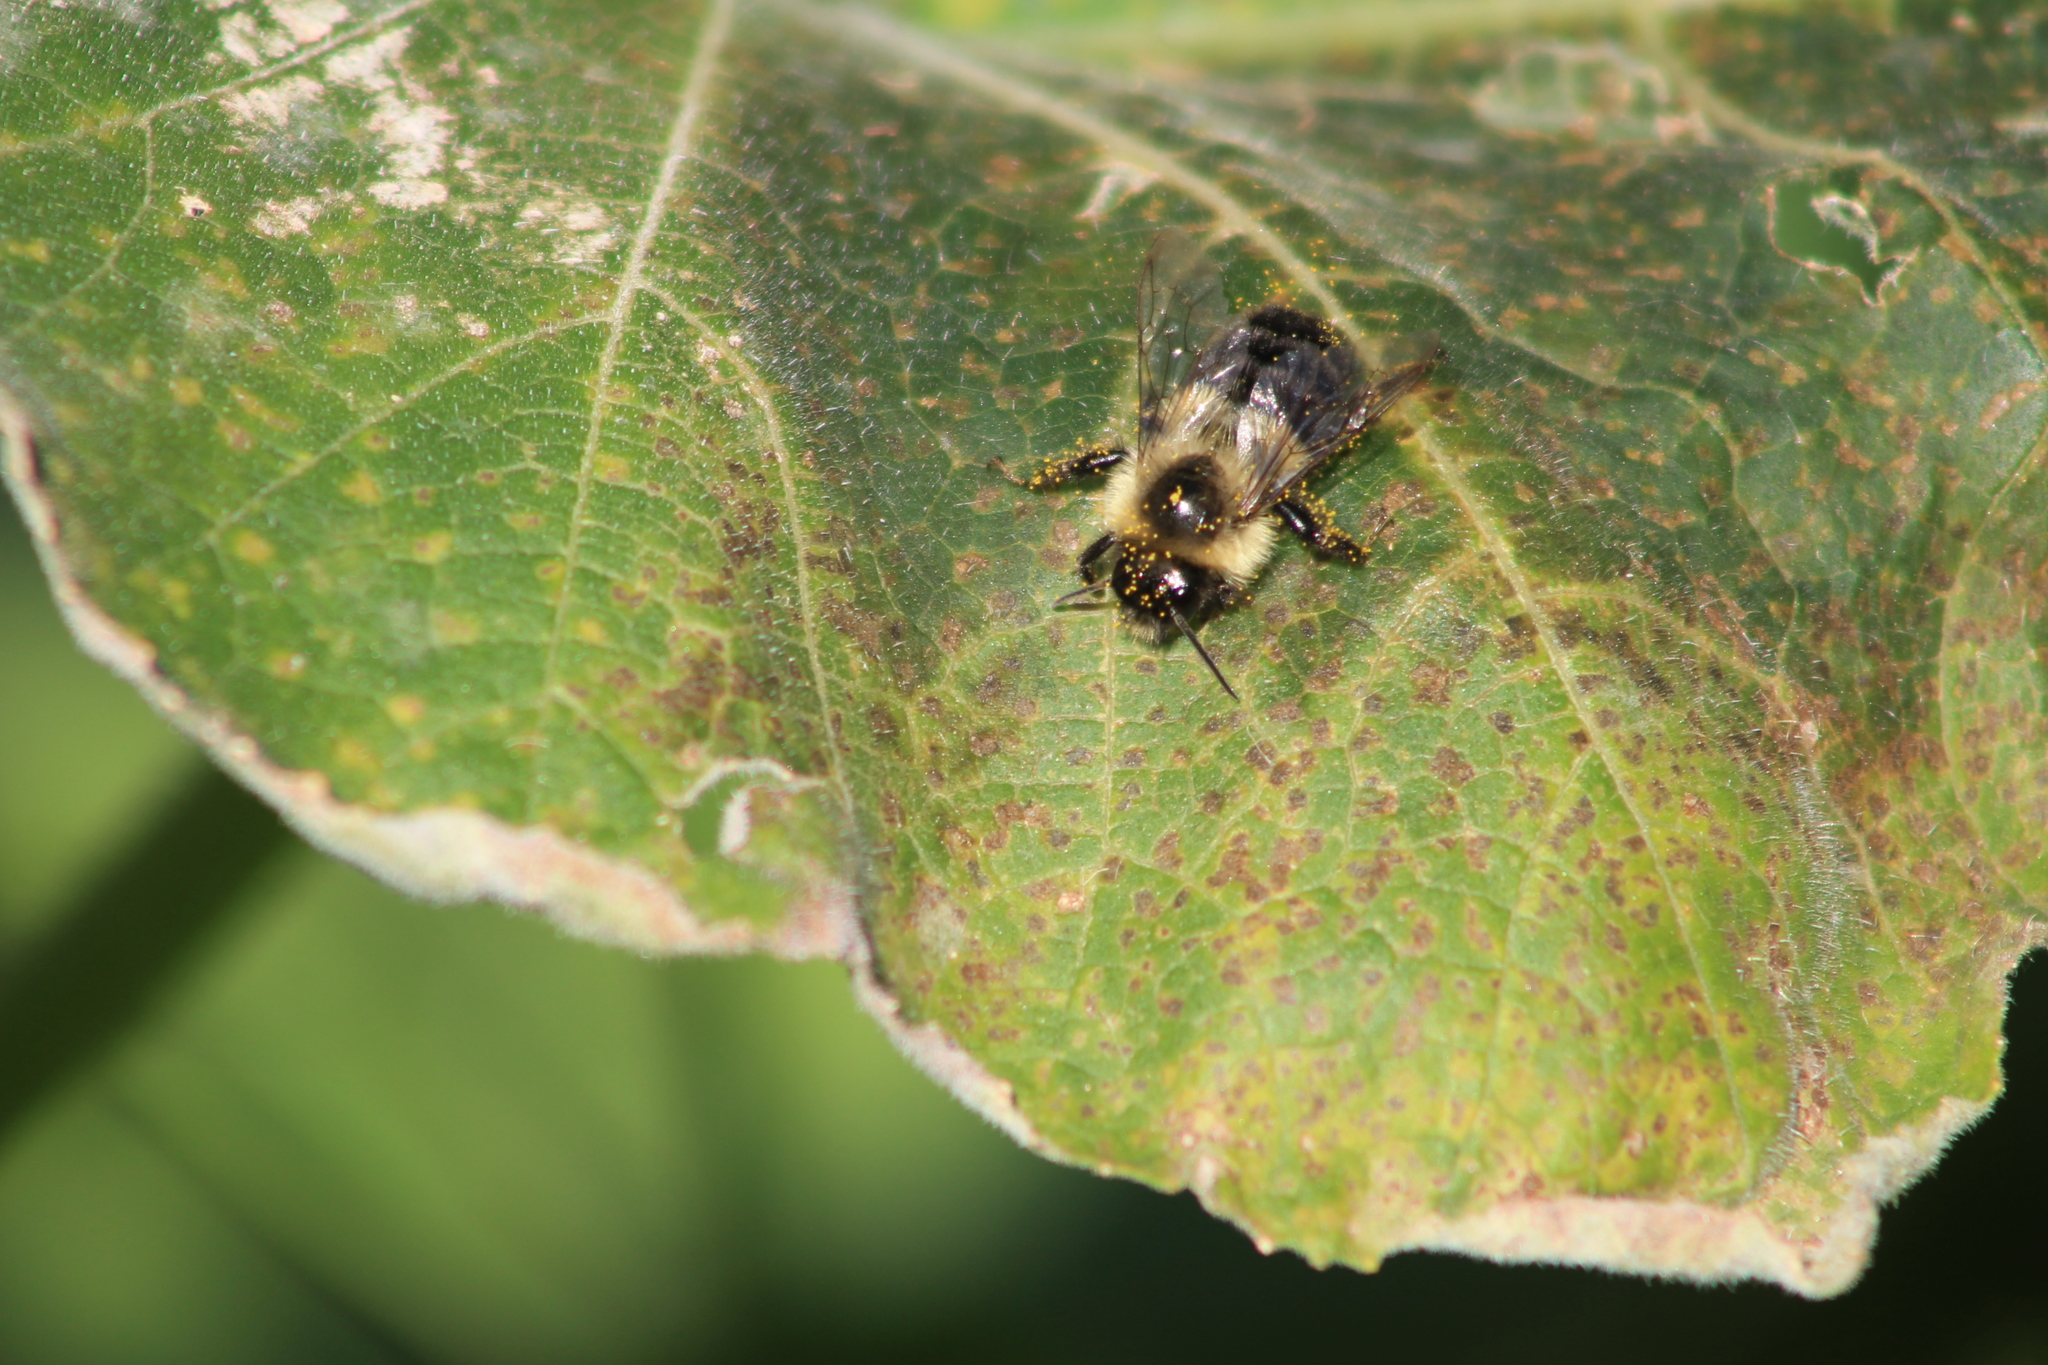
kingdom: Animalia
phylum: Arthropoda
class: Insecta
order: Hymenoptera
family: Apidae
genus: Bombus
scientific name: Bombus impatiens
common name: Common eastern bumble bee
